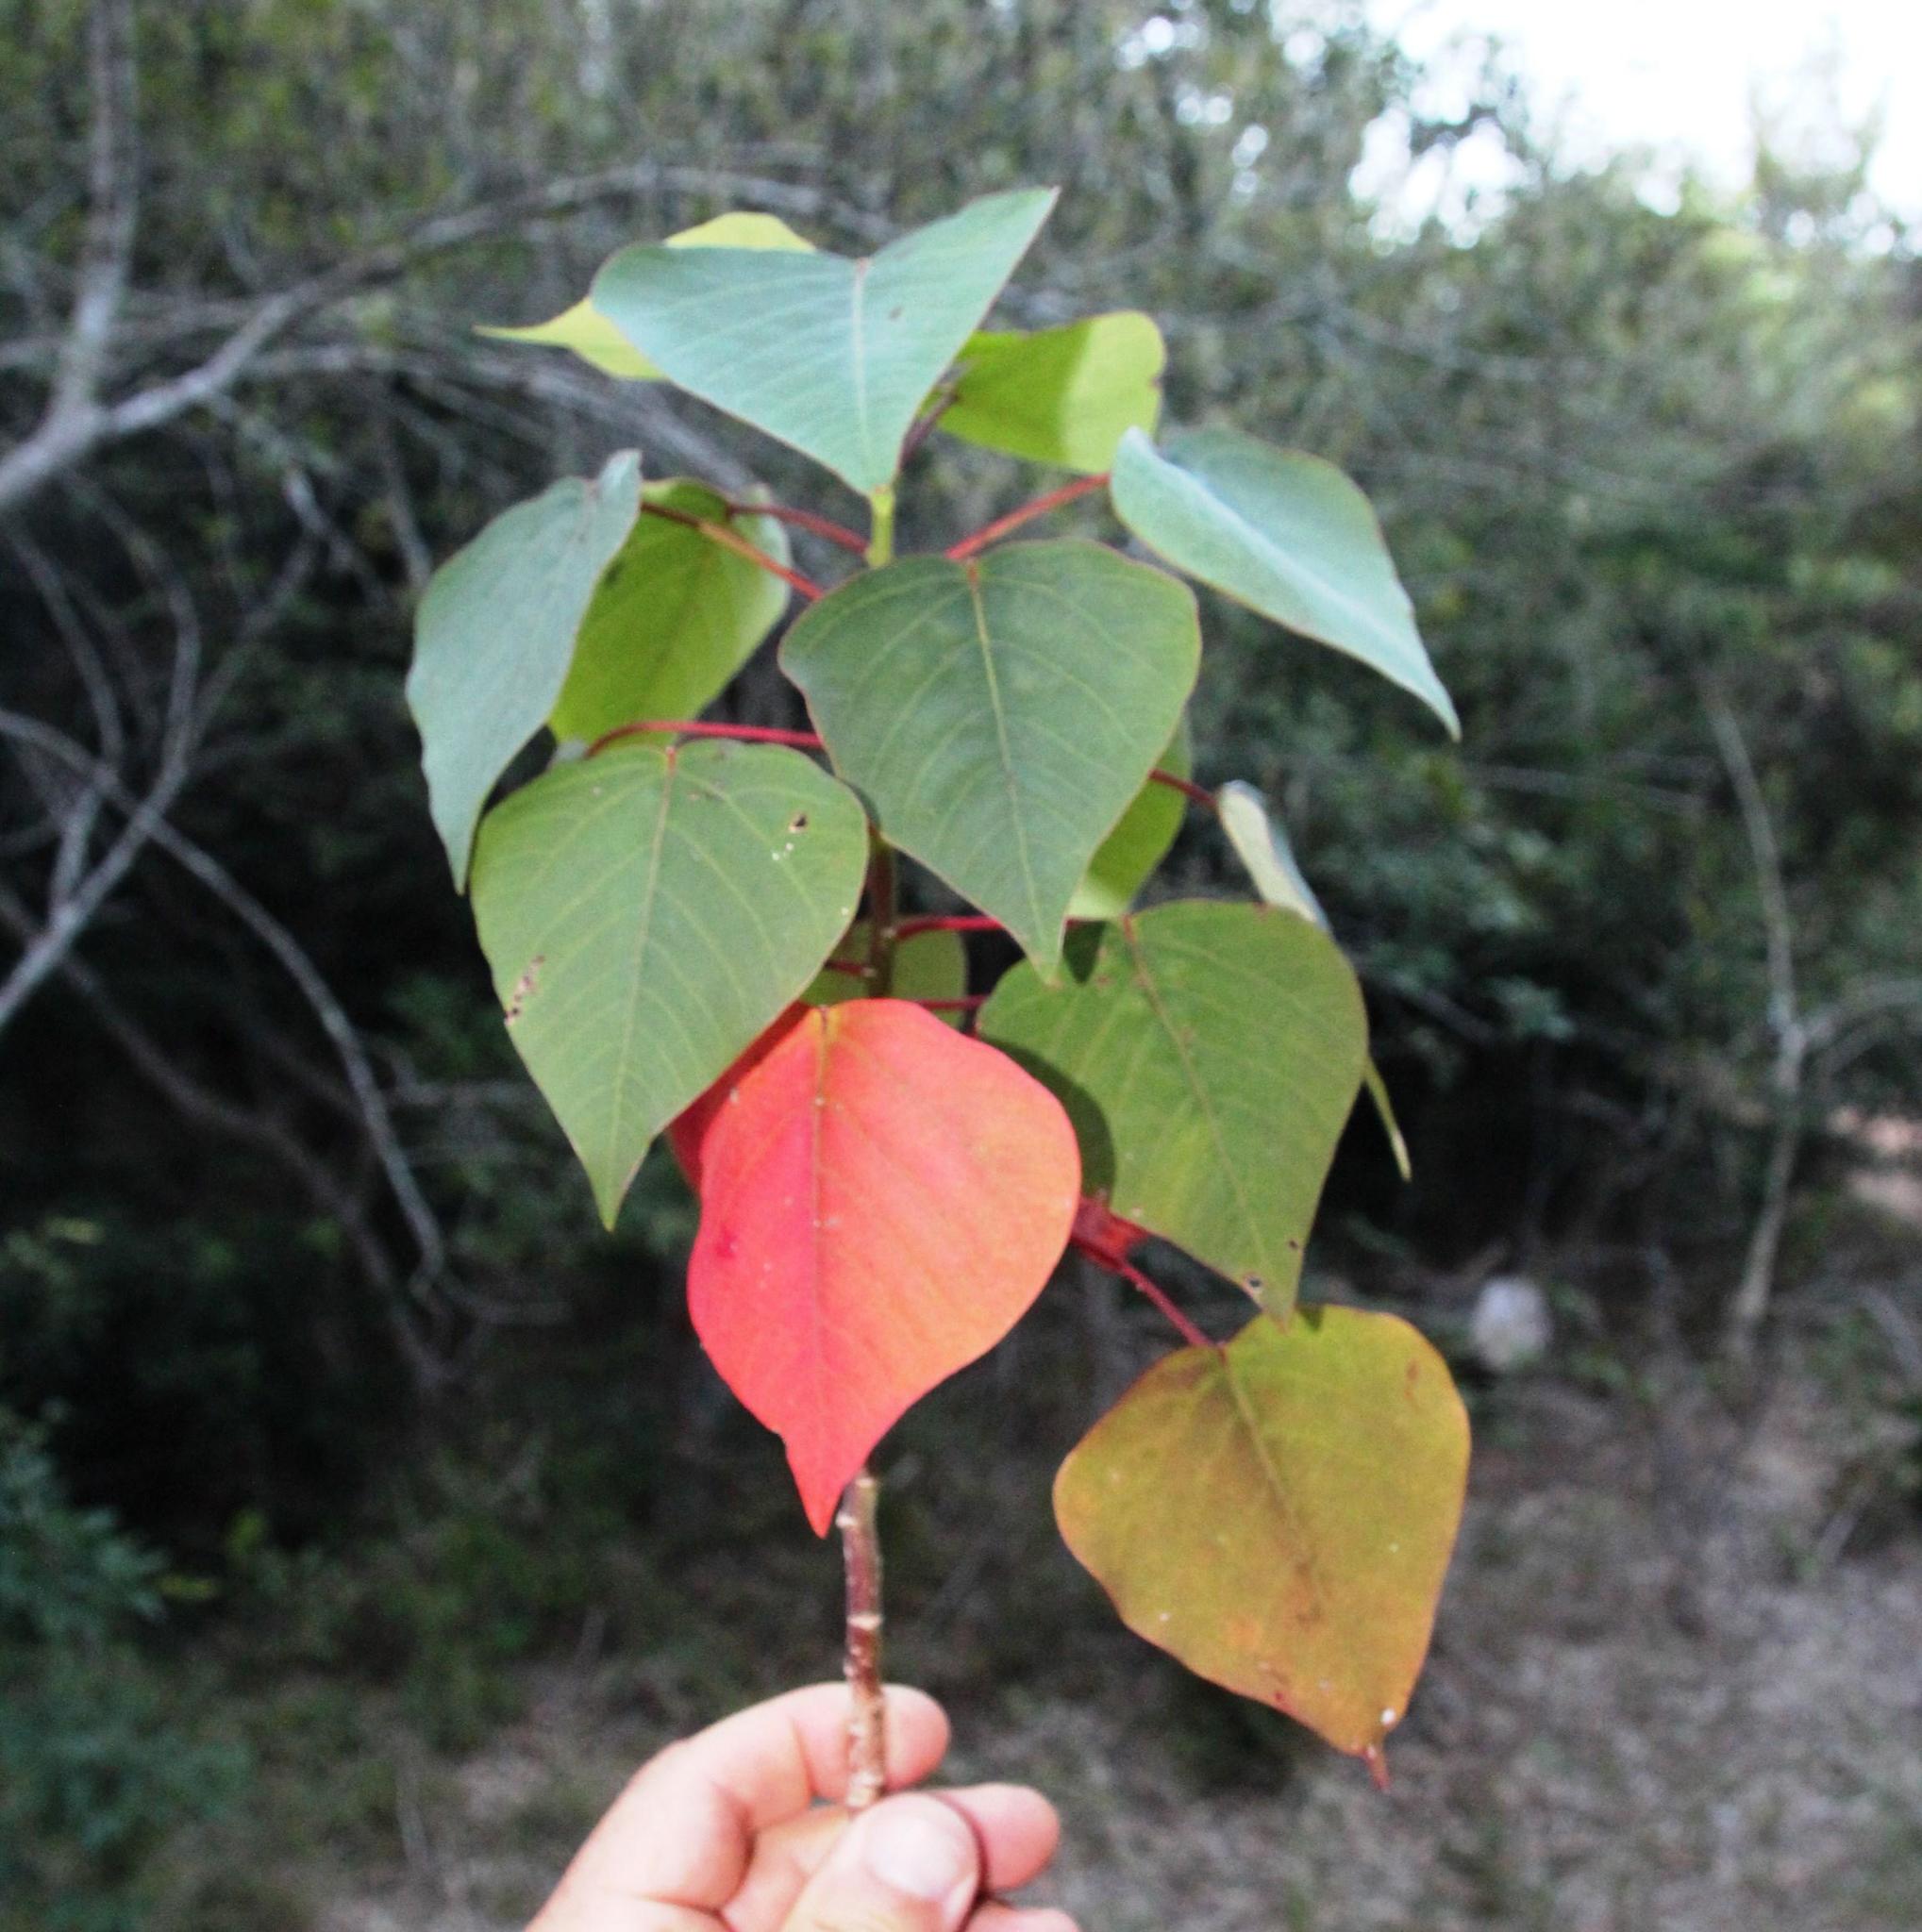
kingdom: Plantae
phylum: Tracheophyta
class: Magnoliopsida
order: Malpighiales
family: Euphorbiaceae
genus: Homalanthus
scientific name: Homalanthus populifolius
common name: Queensland poplar
